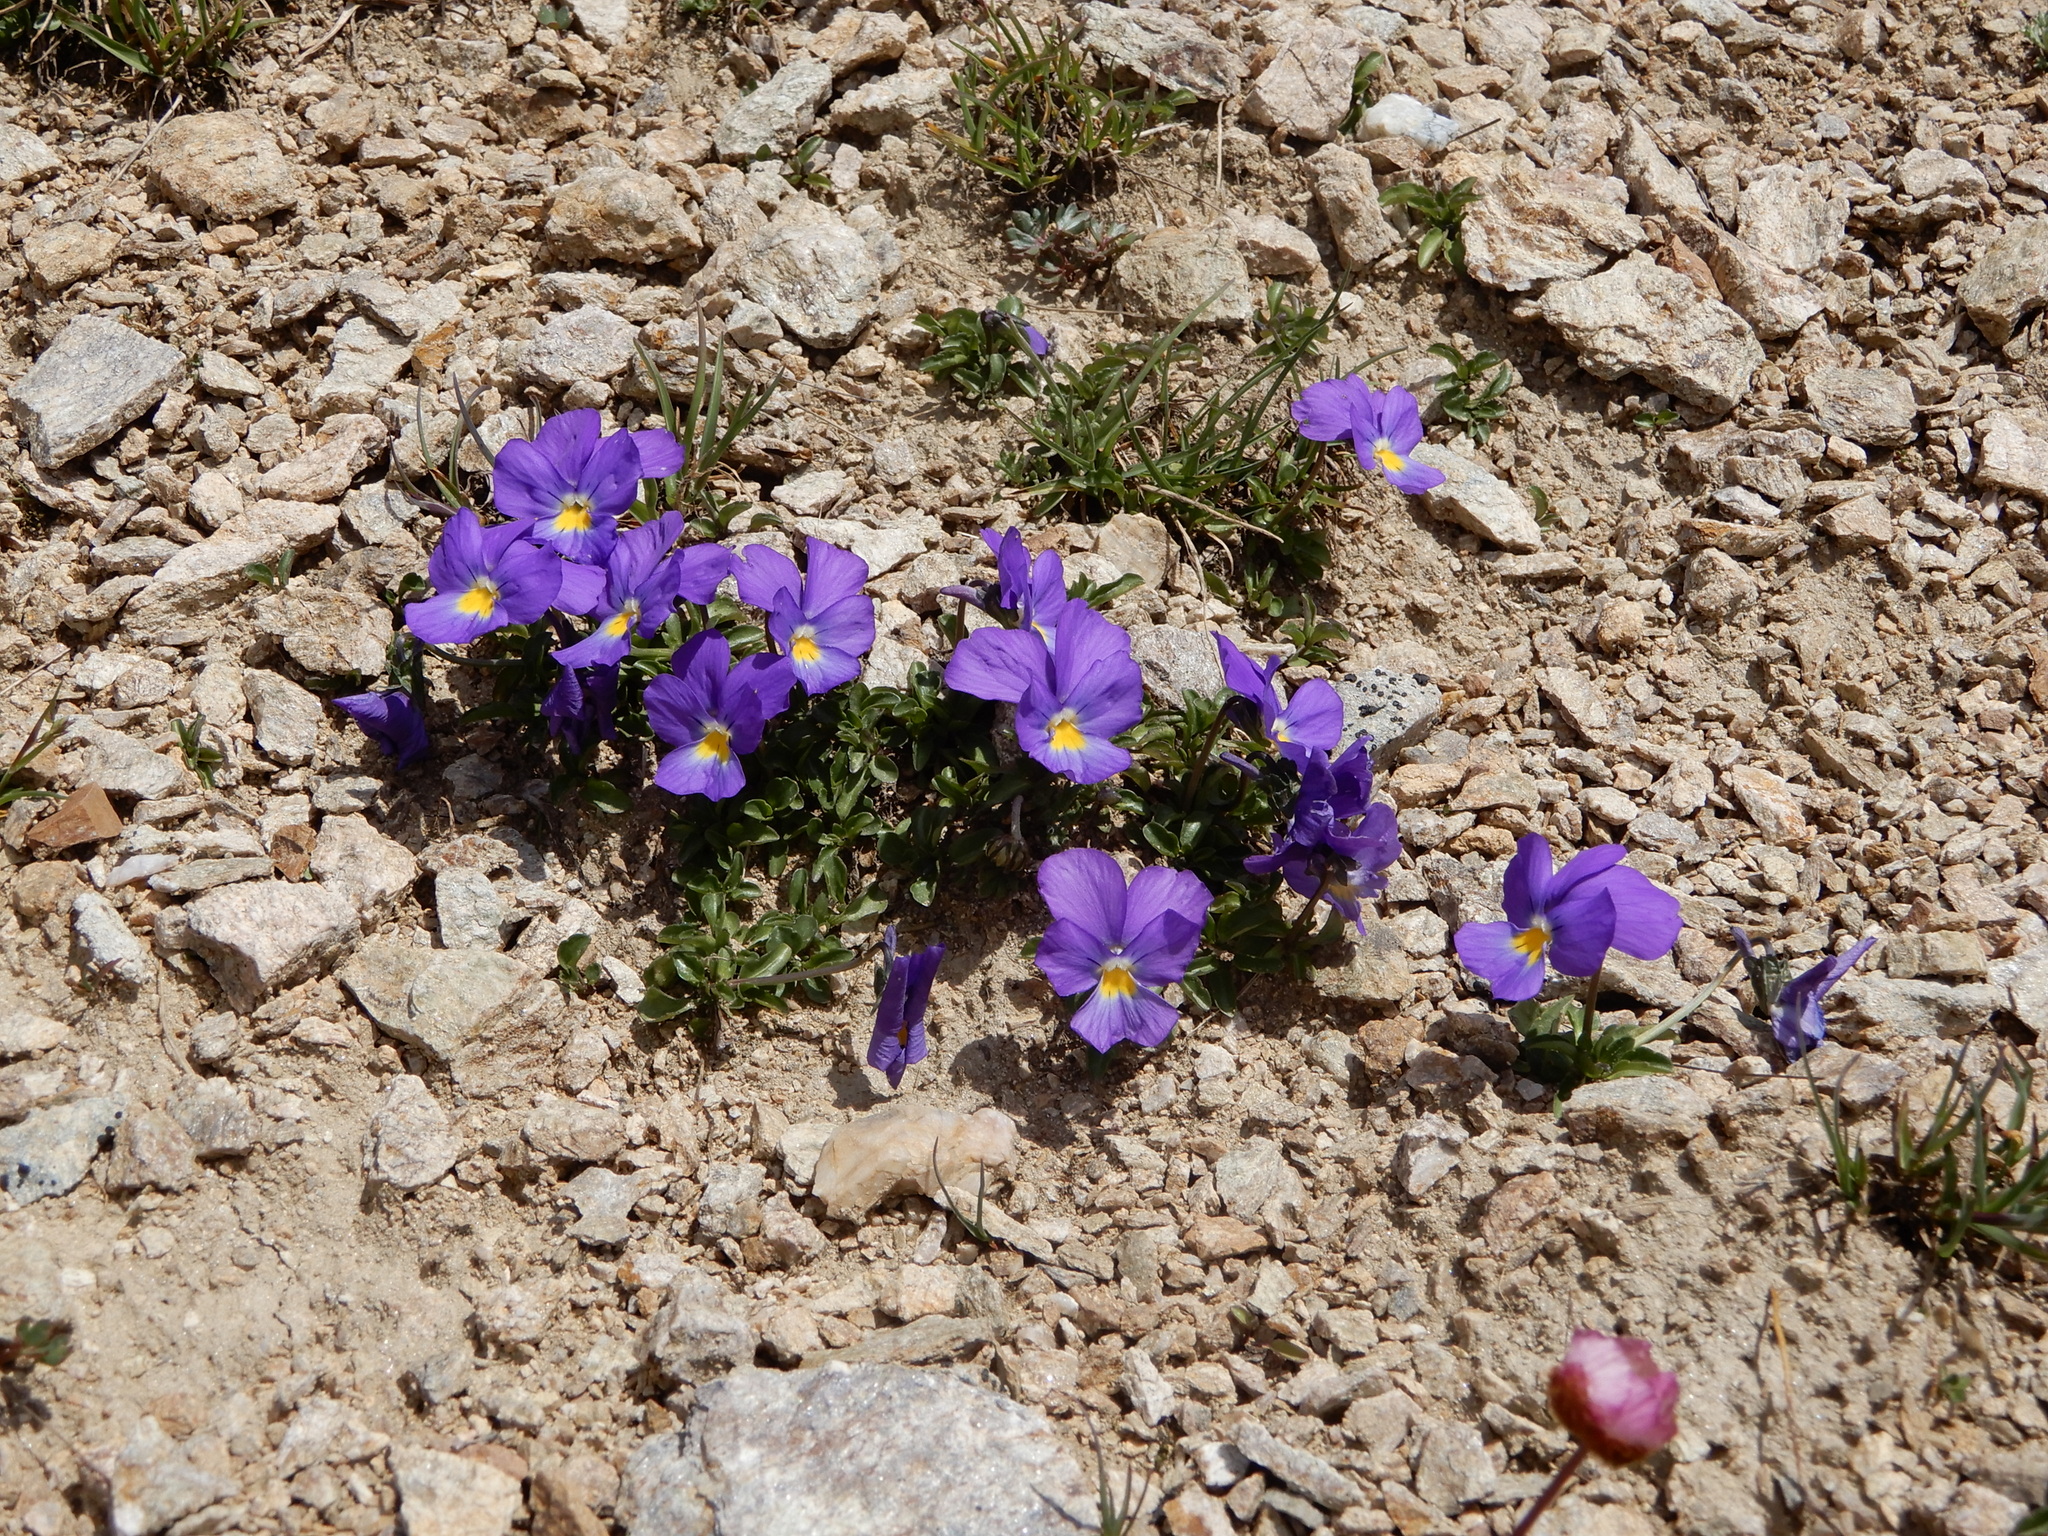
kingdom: Plantae
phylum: Tracheophyta
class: Magnoliopsida
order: Malpighiales
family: Violaceae
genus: Viola
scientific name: Viola calcarata
